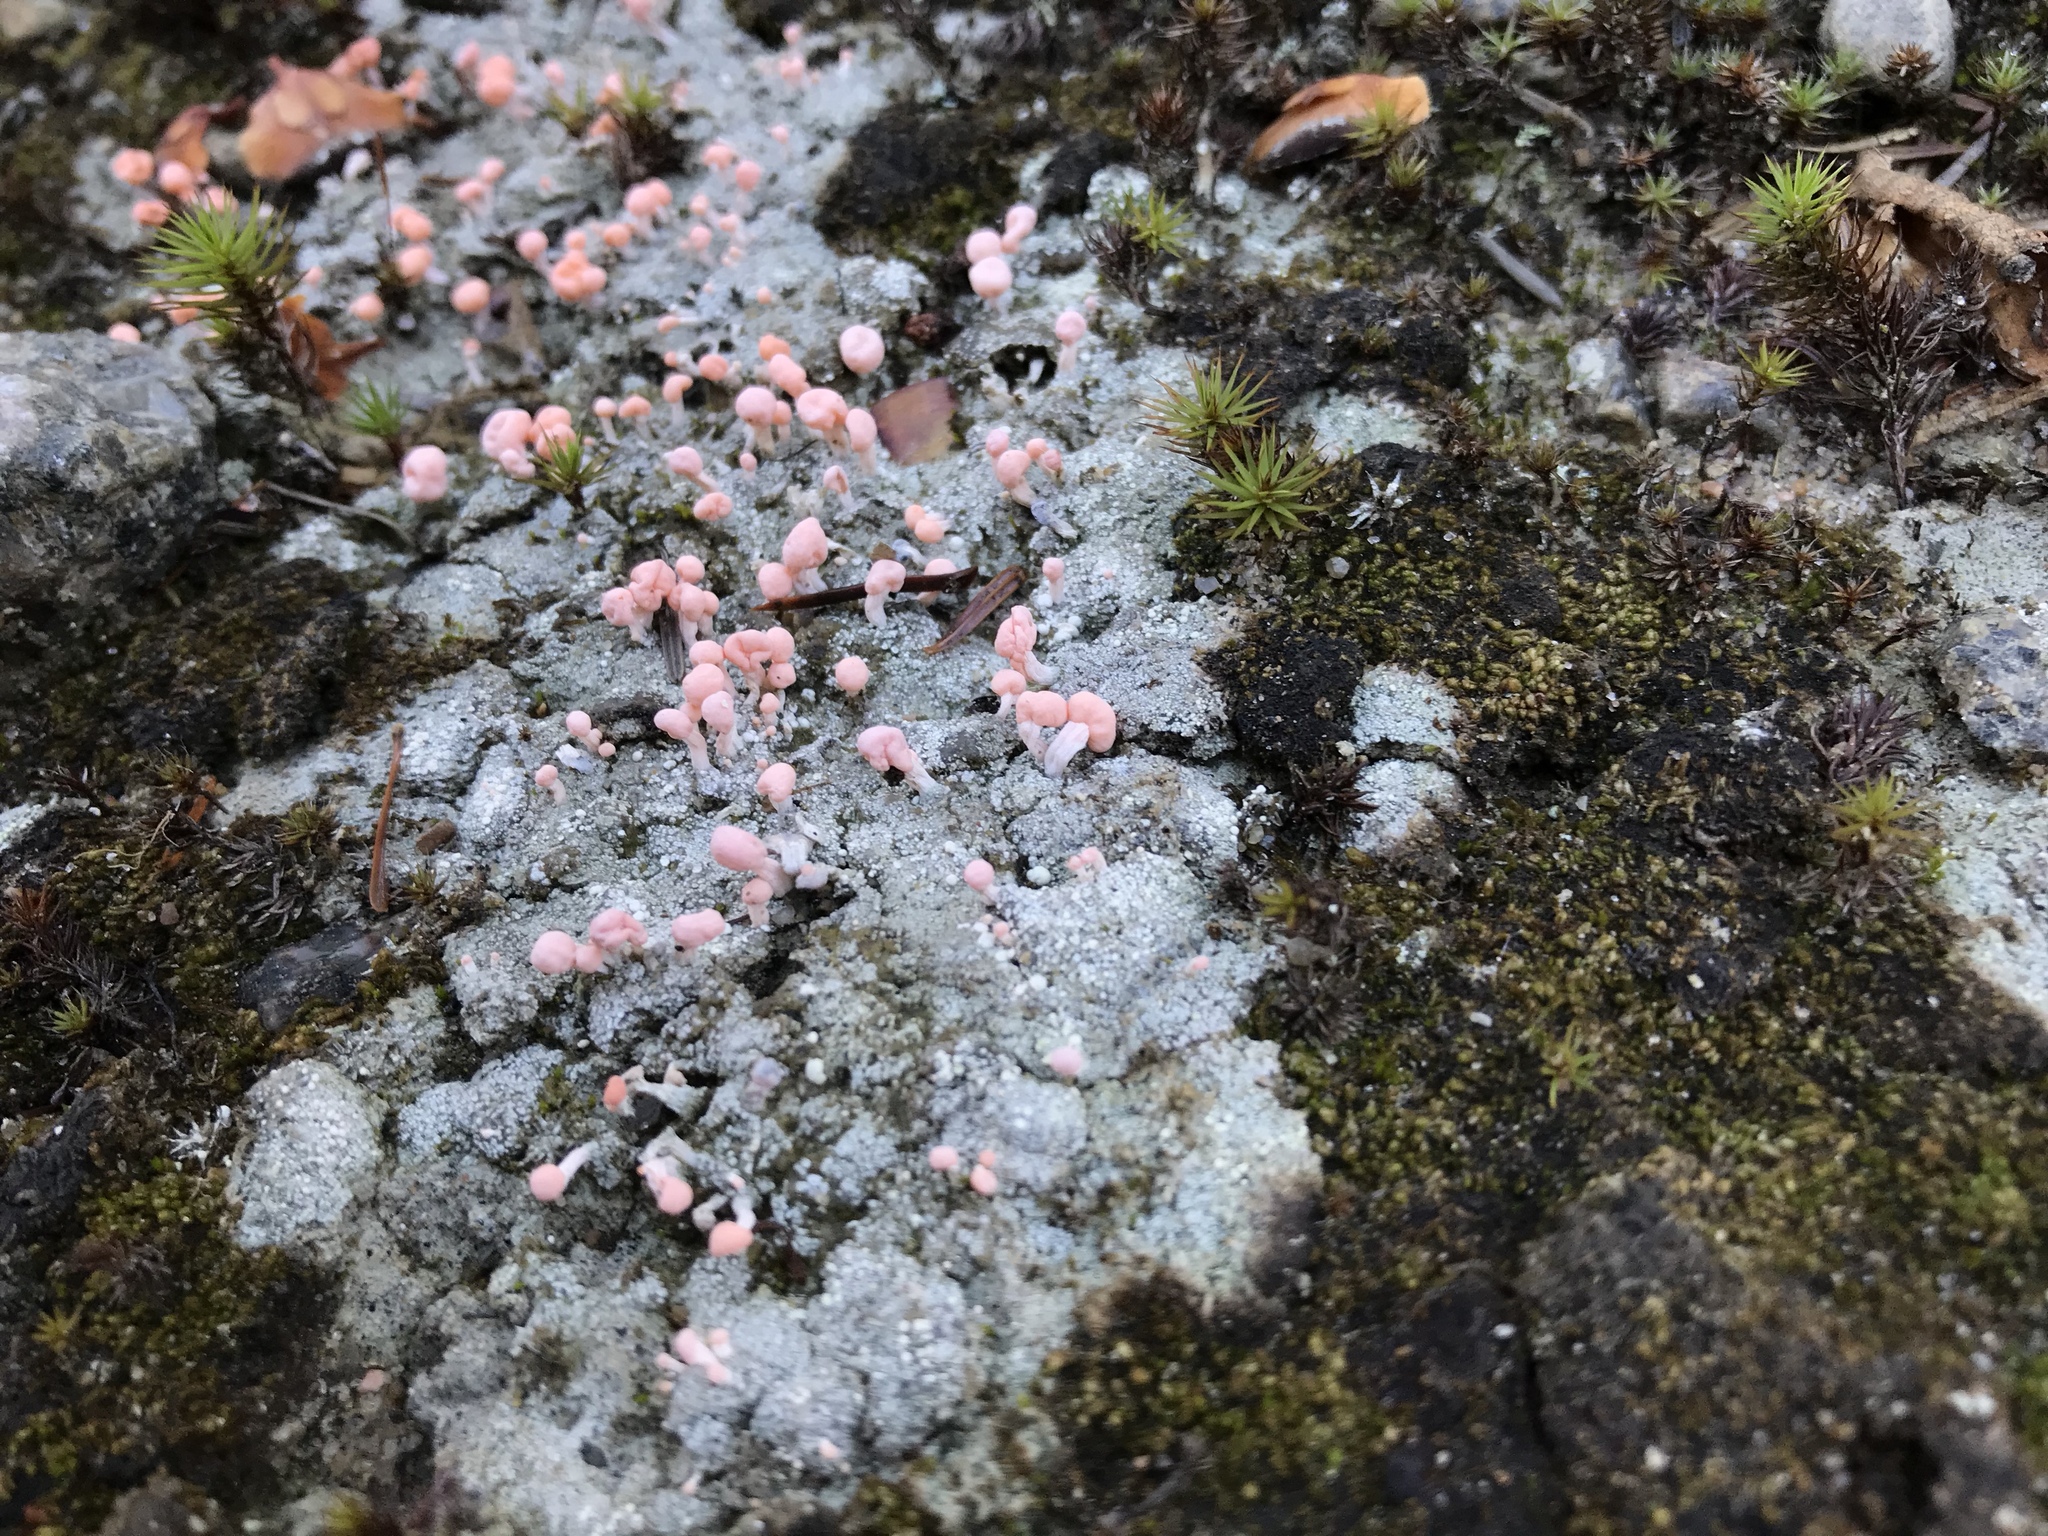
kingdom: Fungi
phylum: Ascomycota
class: Lecanoromycetes
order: Pertusariales
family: Icmadophilaceae
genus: Dibaeis
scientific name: Dibaeis baeomyces
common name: Pink earth lichen
